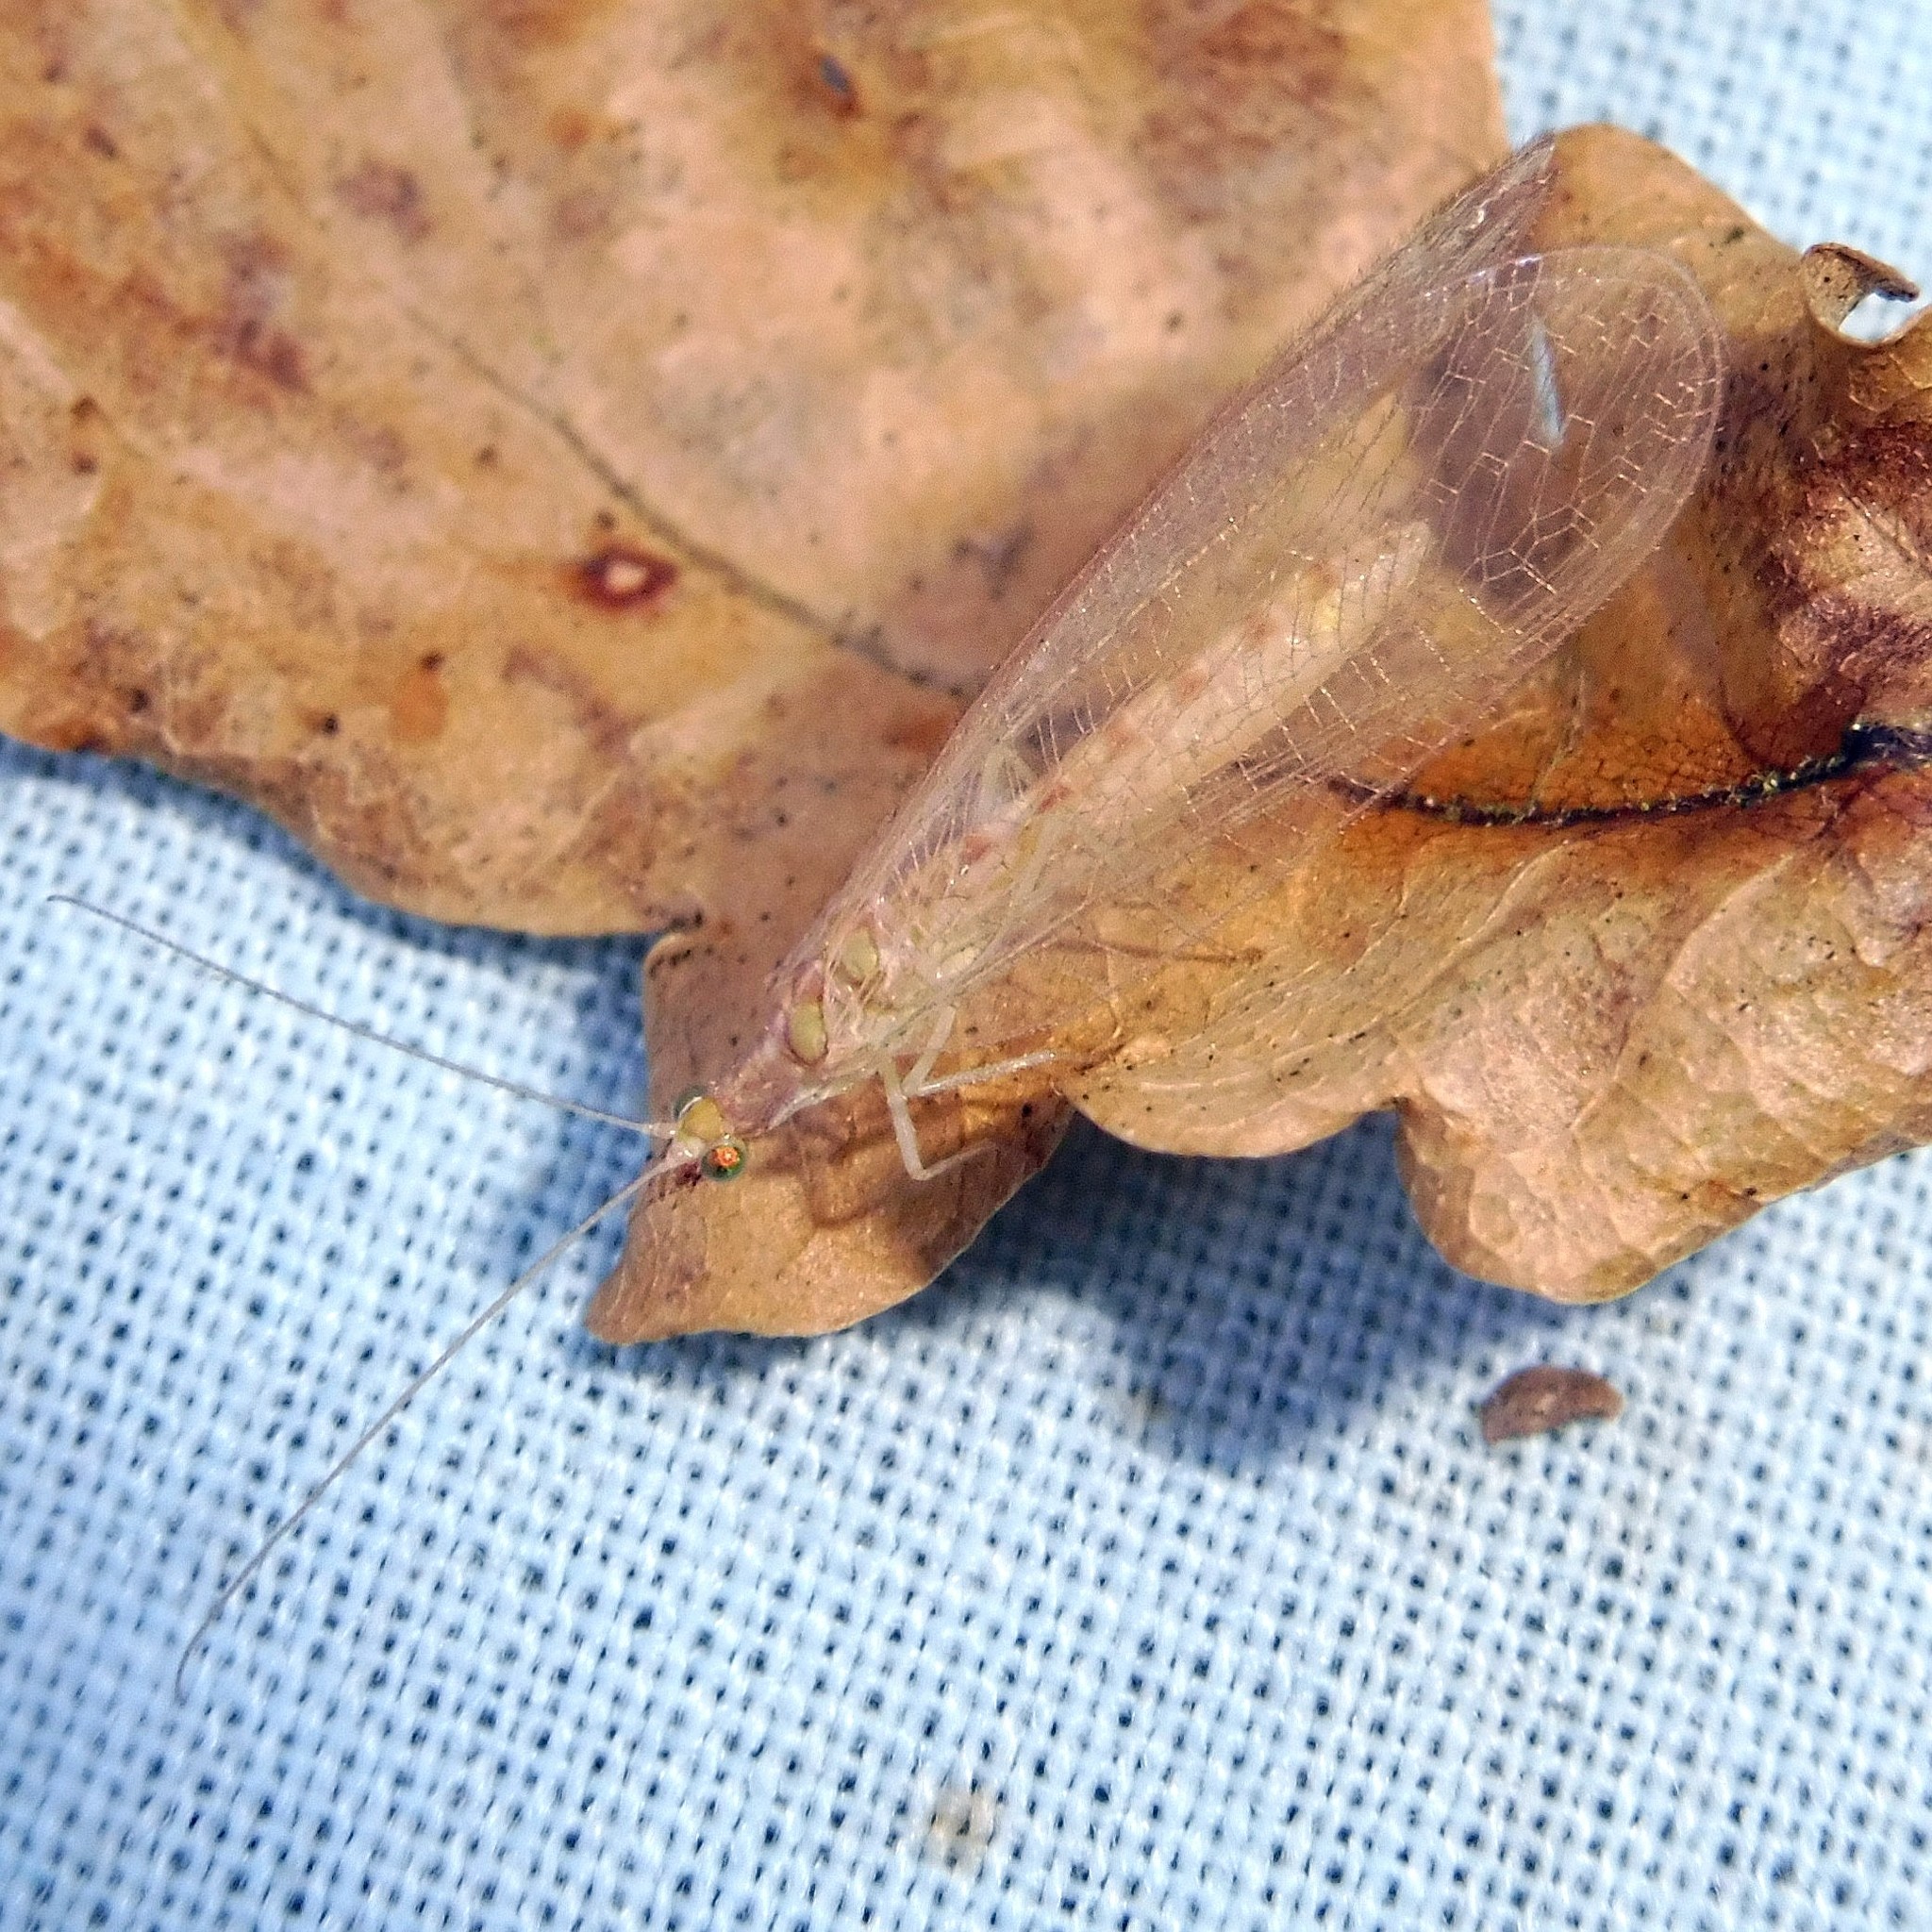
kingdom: Animalia
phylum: Arthropoda
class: Insecta
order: Neuroptera
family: Chrysopidae
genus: Chrysoperla
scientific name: Chrysoperla
